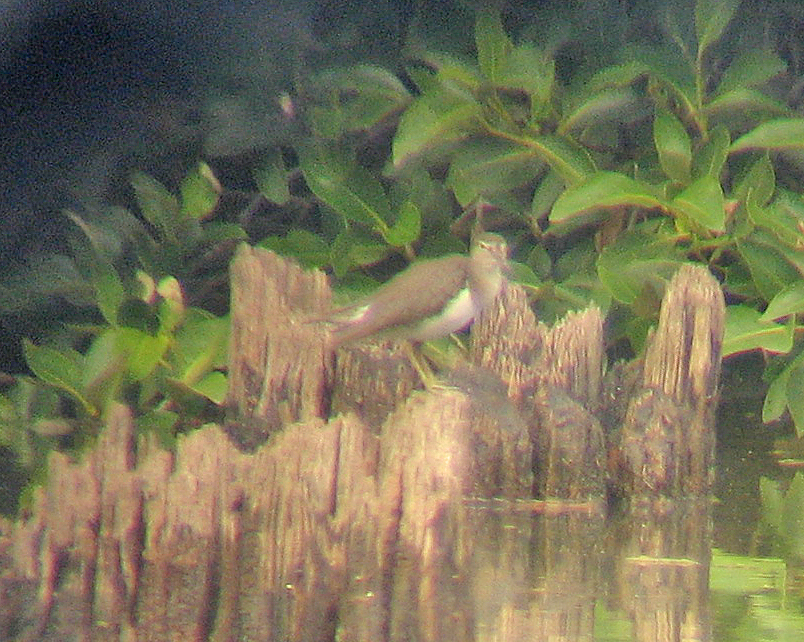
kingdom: Animalia
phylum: Chordata
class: Aves
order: Charadriiformes
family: Scolopacidae
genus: Actitis
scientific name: Actitis hypoleucos
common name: Common sandpiper
